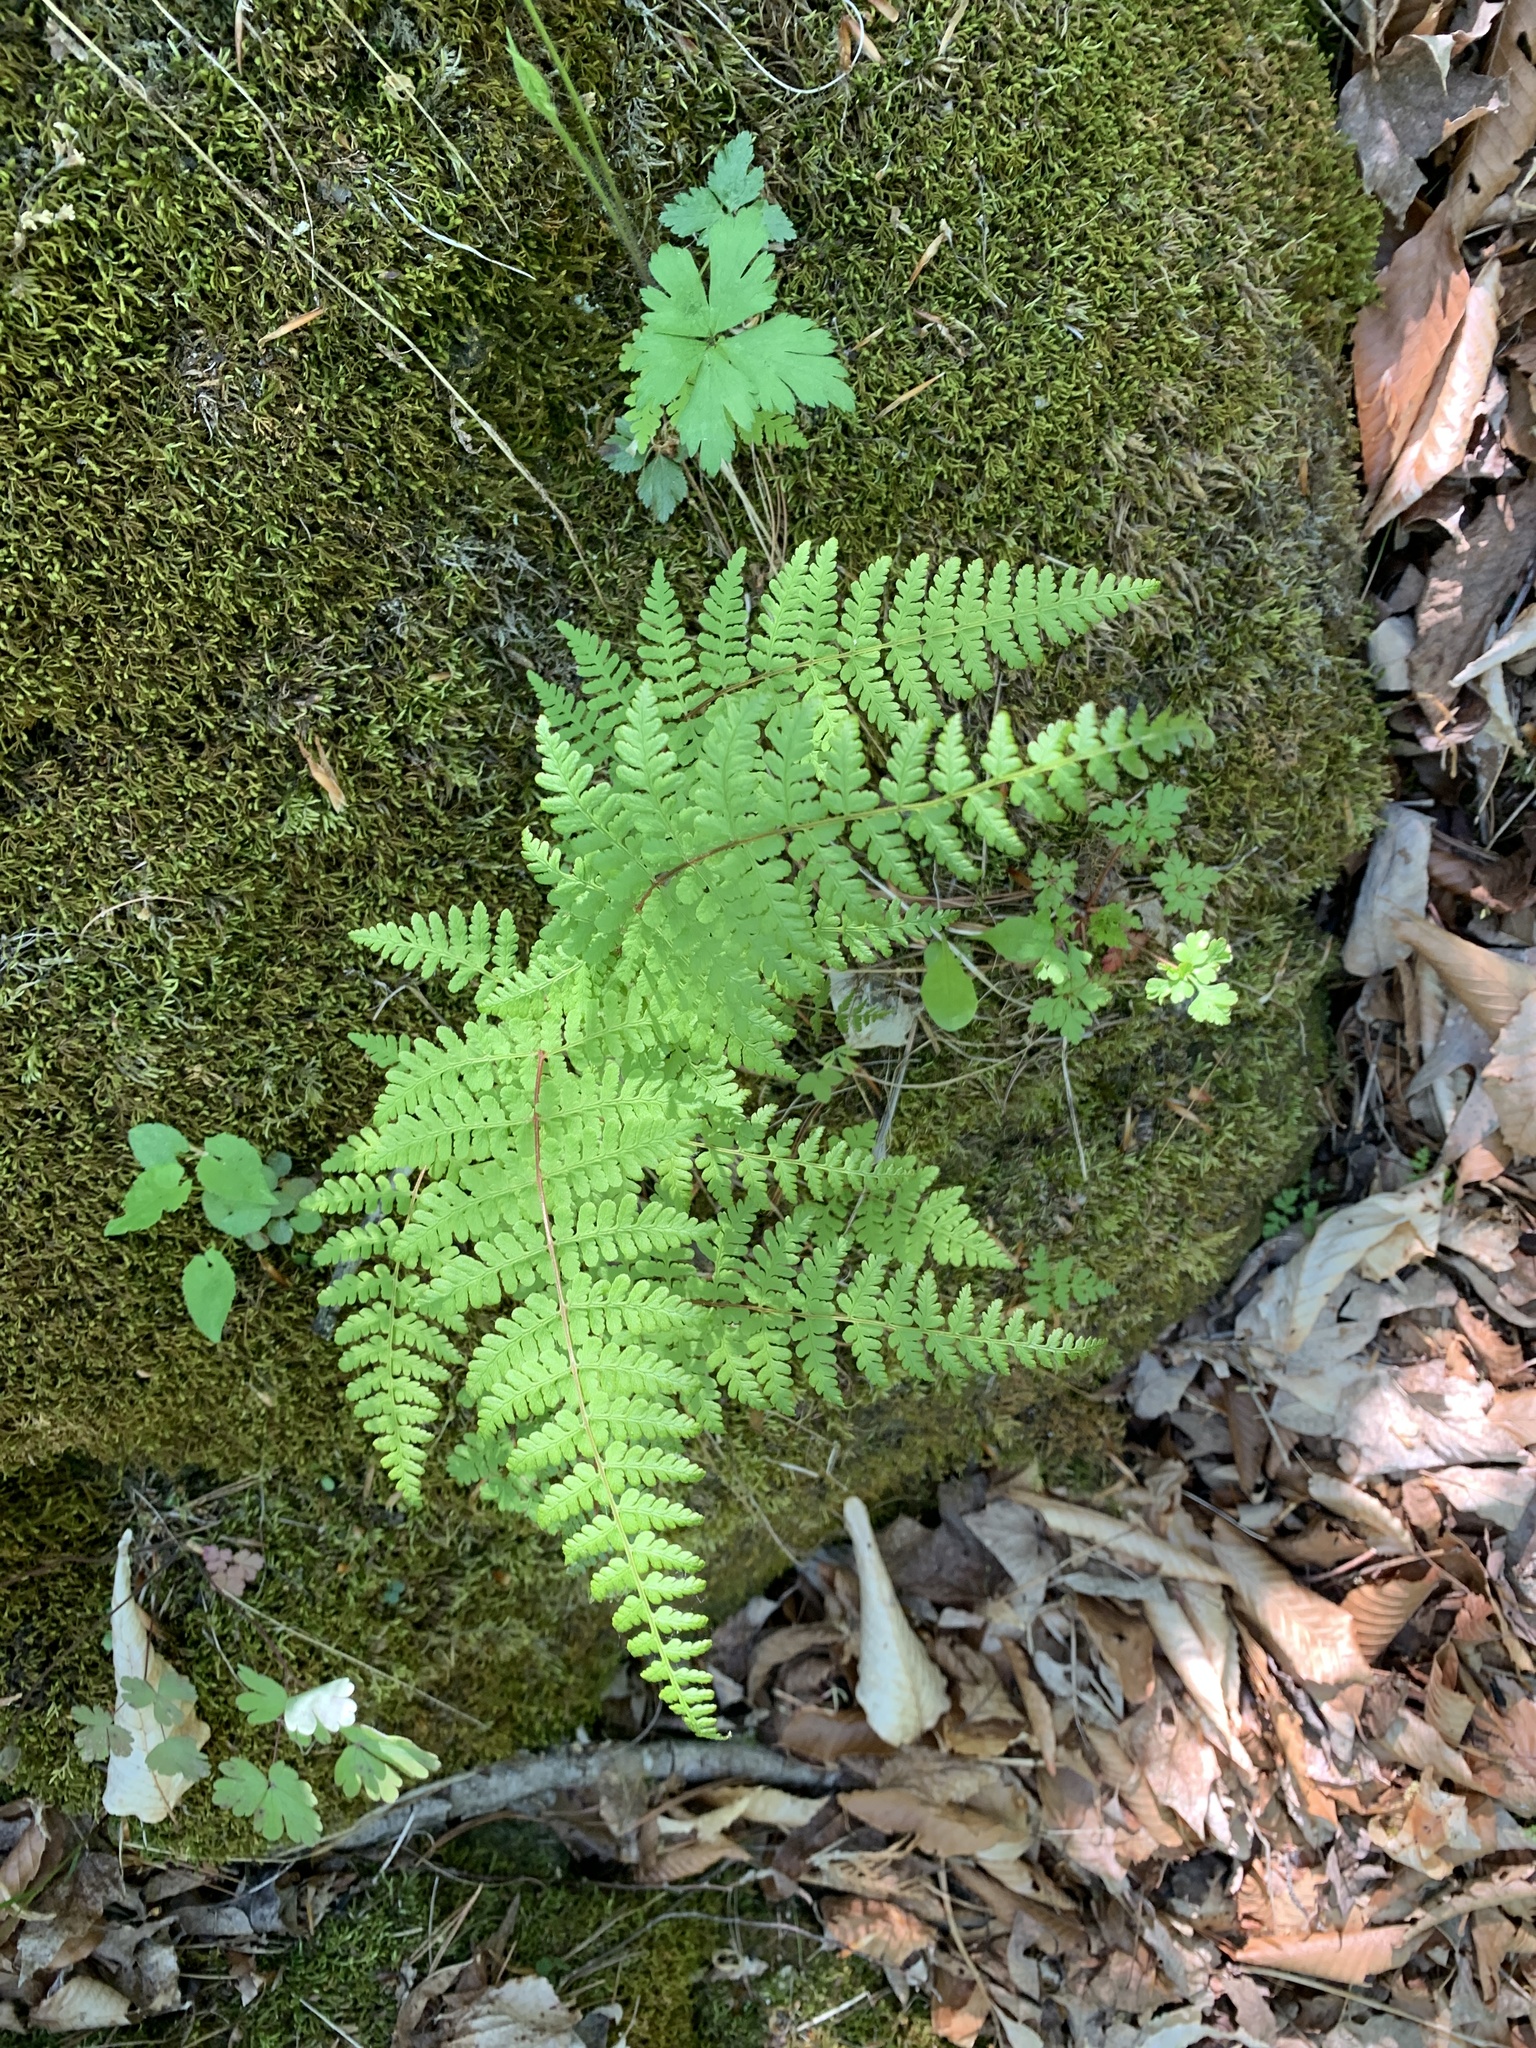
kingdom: Plantae
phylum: Tracheophyta
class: Polypodiopsida
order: Polypodiales
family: Cystopteridaceae
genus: Cystopteris
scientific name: Cystopteris bulbifera
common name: Bulblet bladder fern
